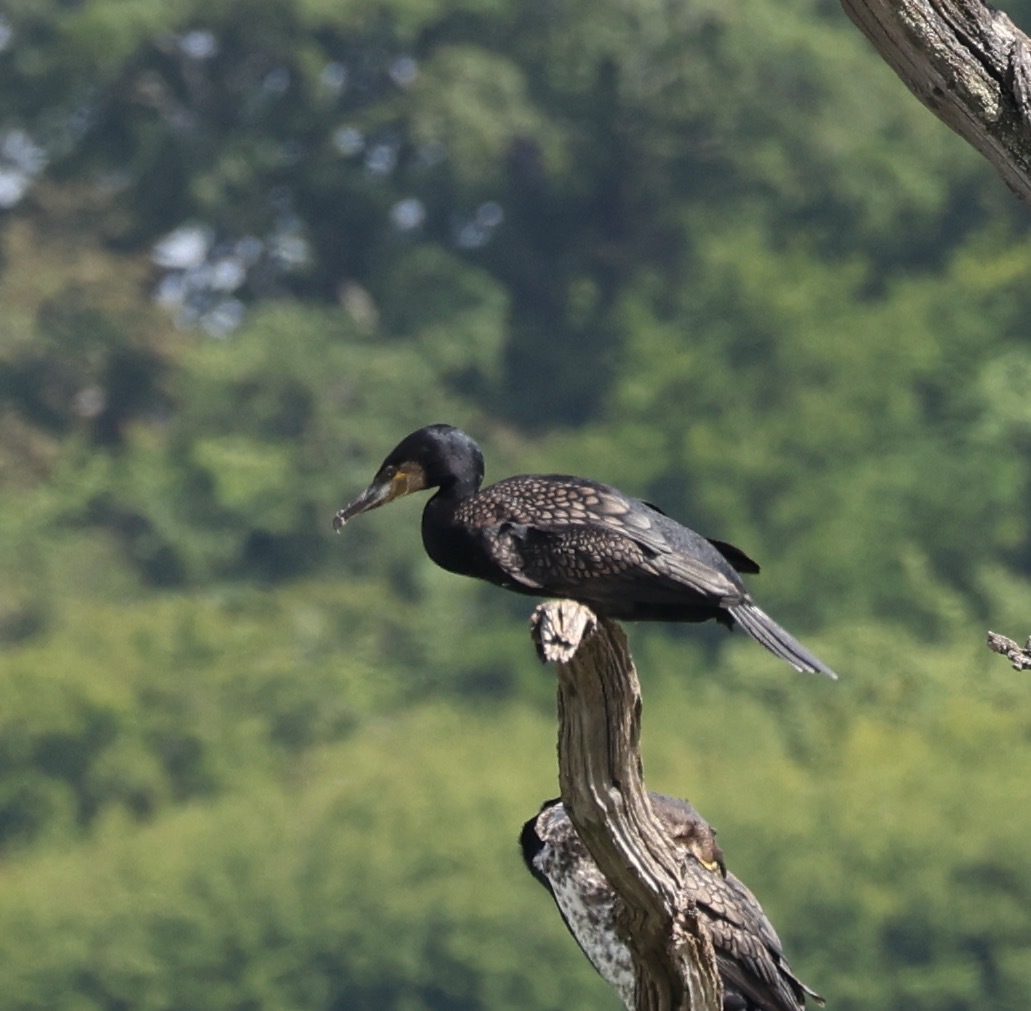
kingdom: Animalia
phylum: Chordata
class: Aves
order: Suliformes
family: Phalacrocoracidae
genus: Phalacrocorax
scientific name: Phalacrocorax carbo
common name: Great cormorant
